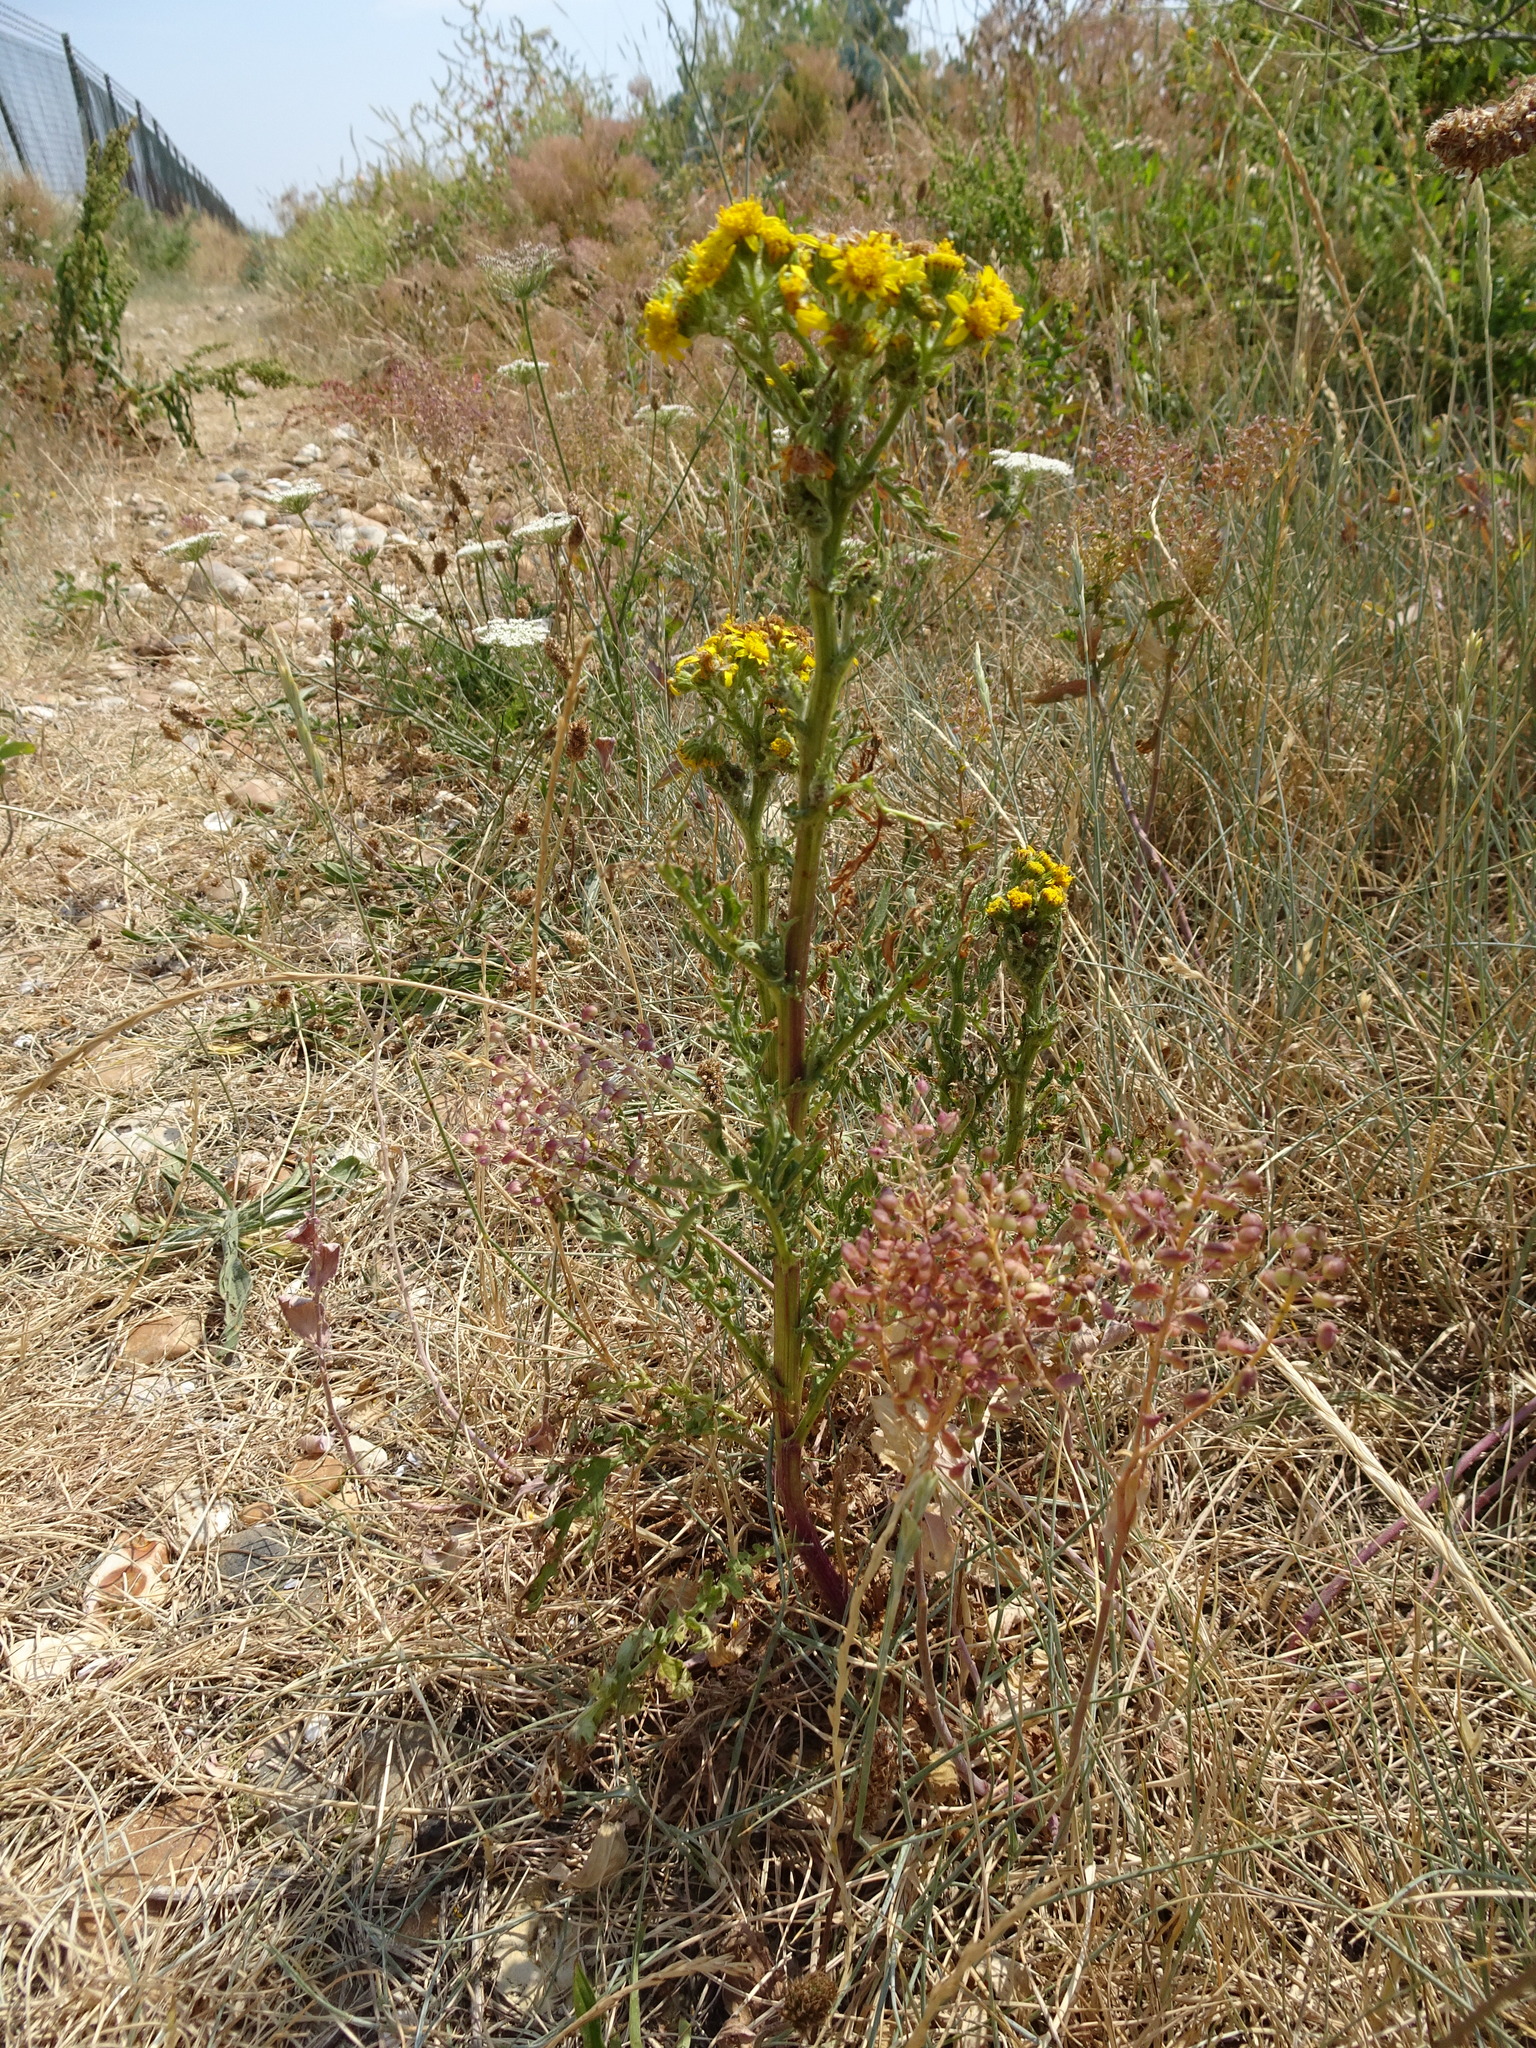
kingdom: Plantae
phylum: Tracheophyta
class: Magnoliopsida
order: Asterales
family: Asteraceae
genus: Jacobaea
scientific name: Jacobaea vulgaris
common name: Stinking willie
